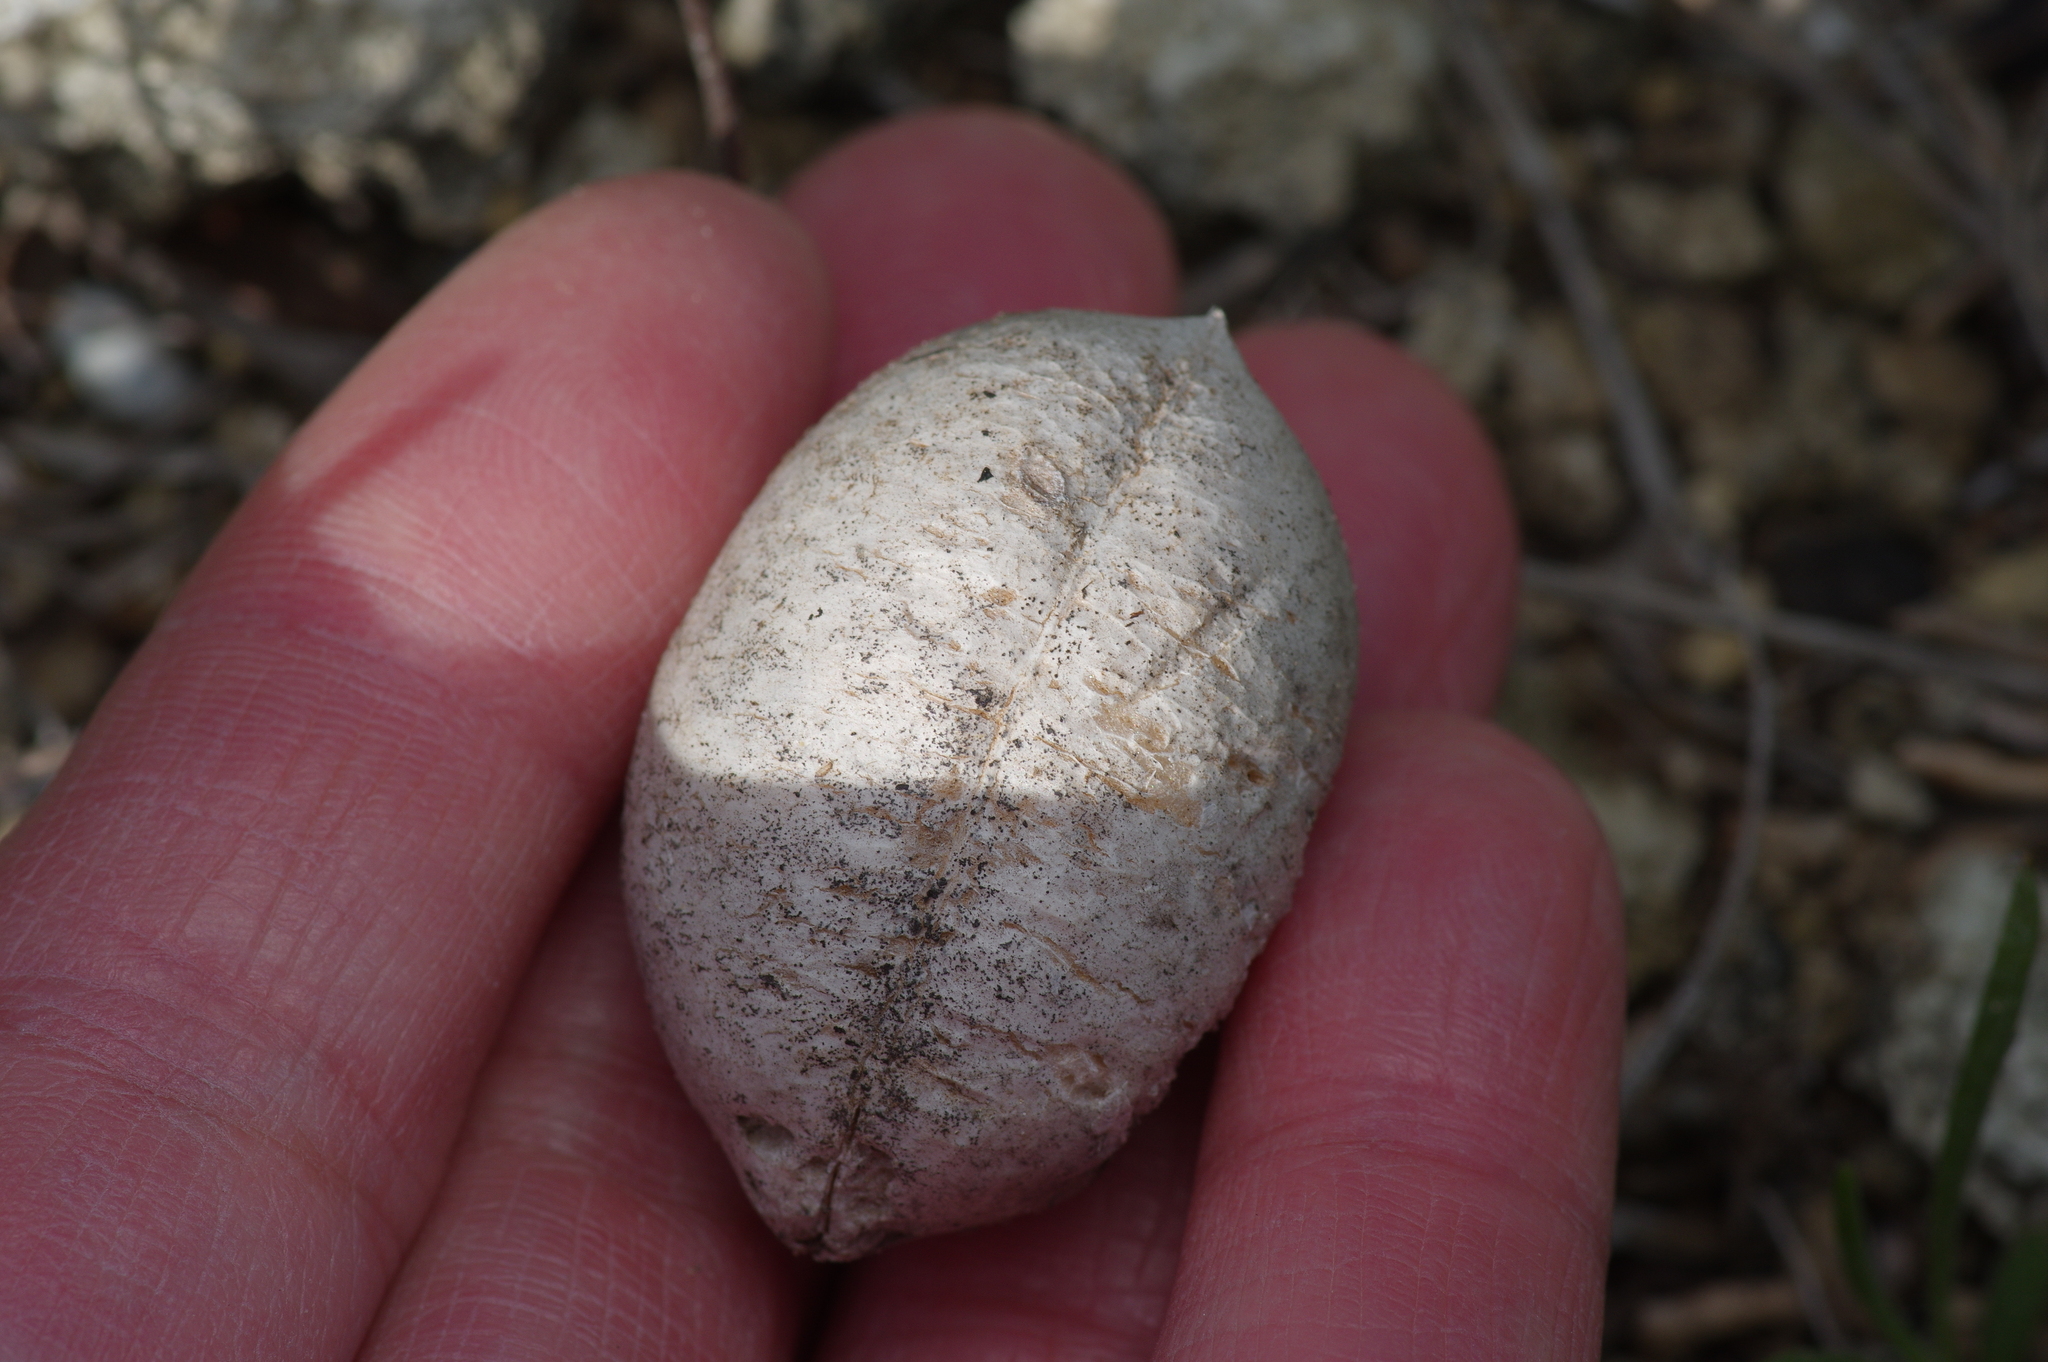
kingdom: Plantae
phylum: Tracheophyta
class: Magnoliopsida
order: Fabales
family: Fabaceae
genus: Astragalus
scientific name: Astragalus crassicarpus
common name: Ground-plum milk-vetch
